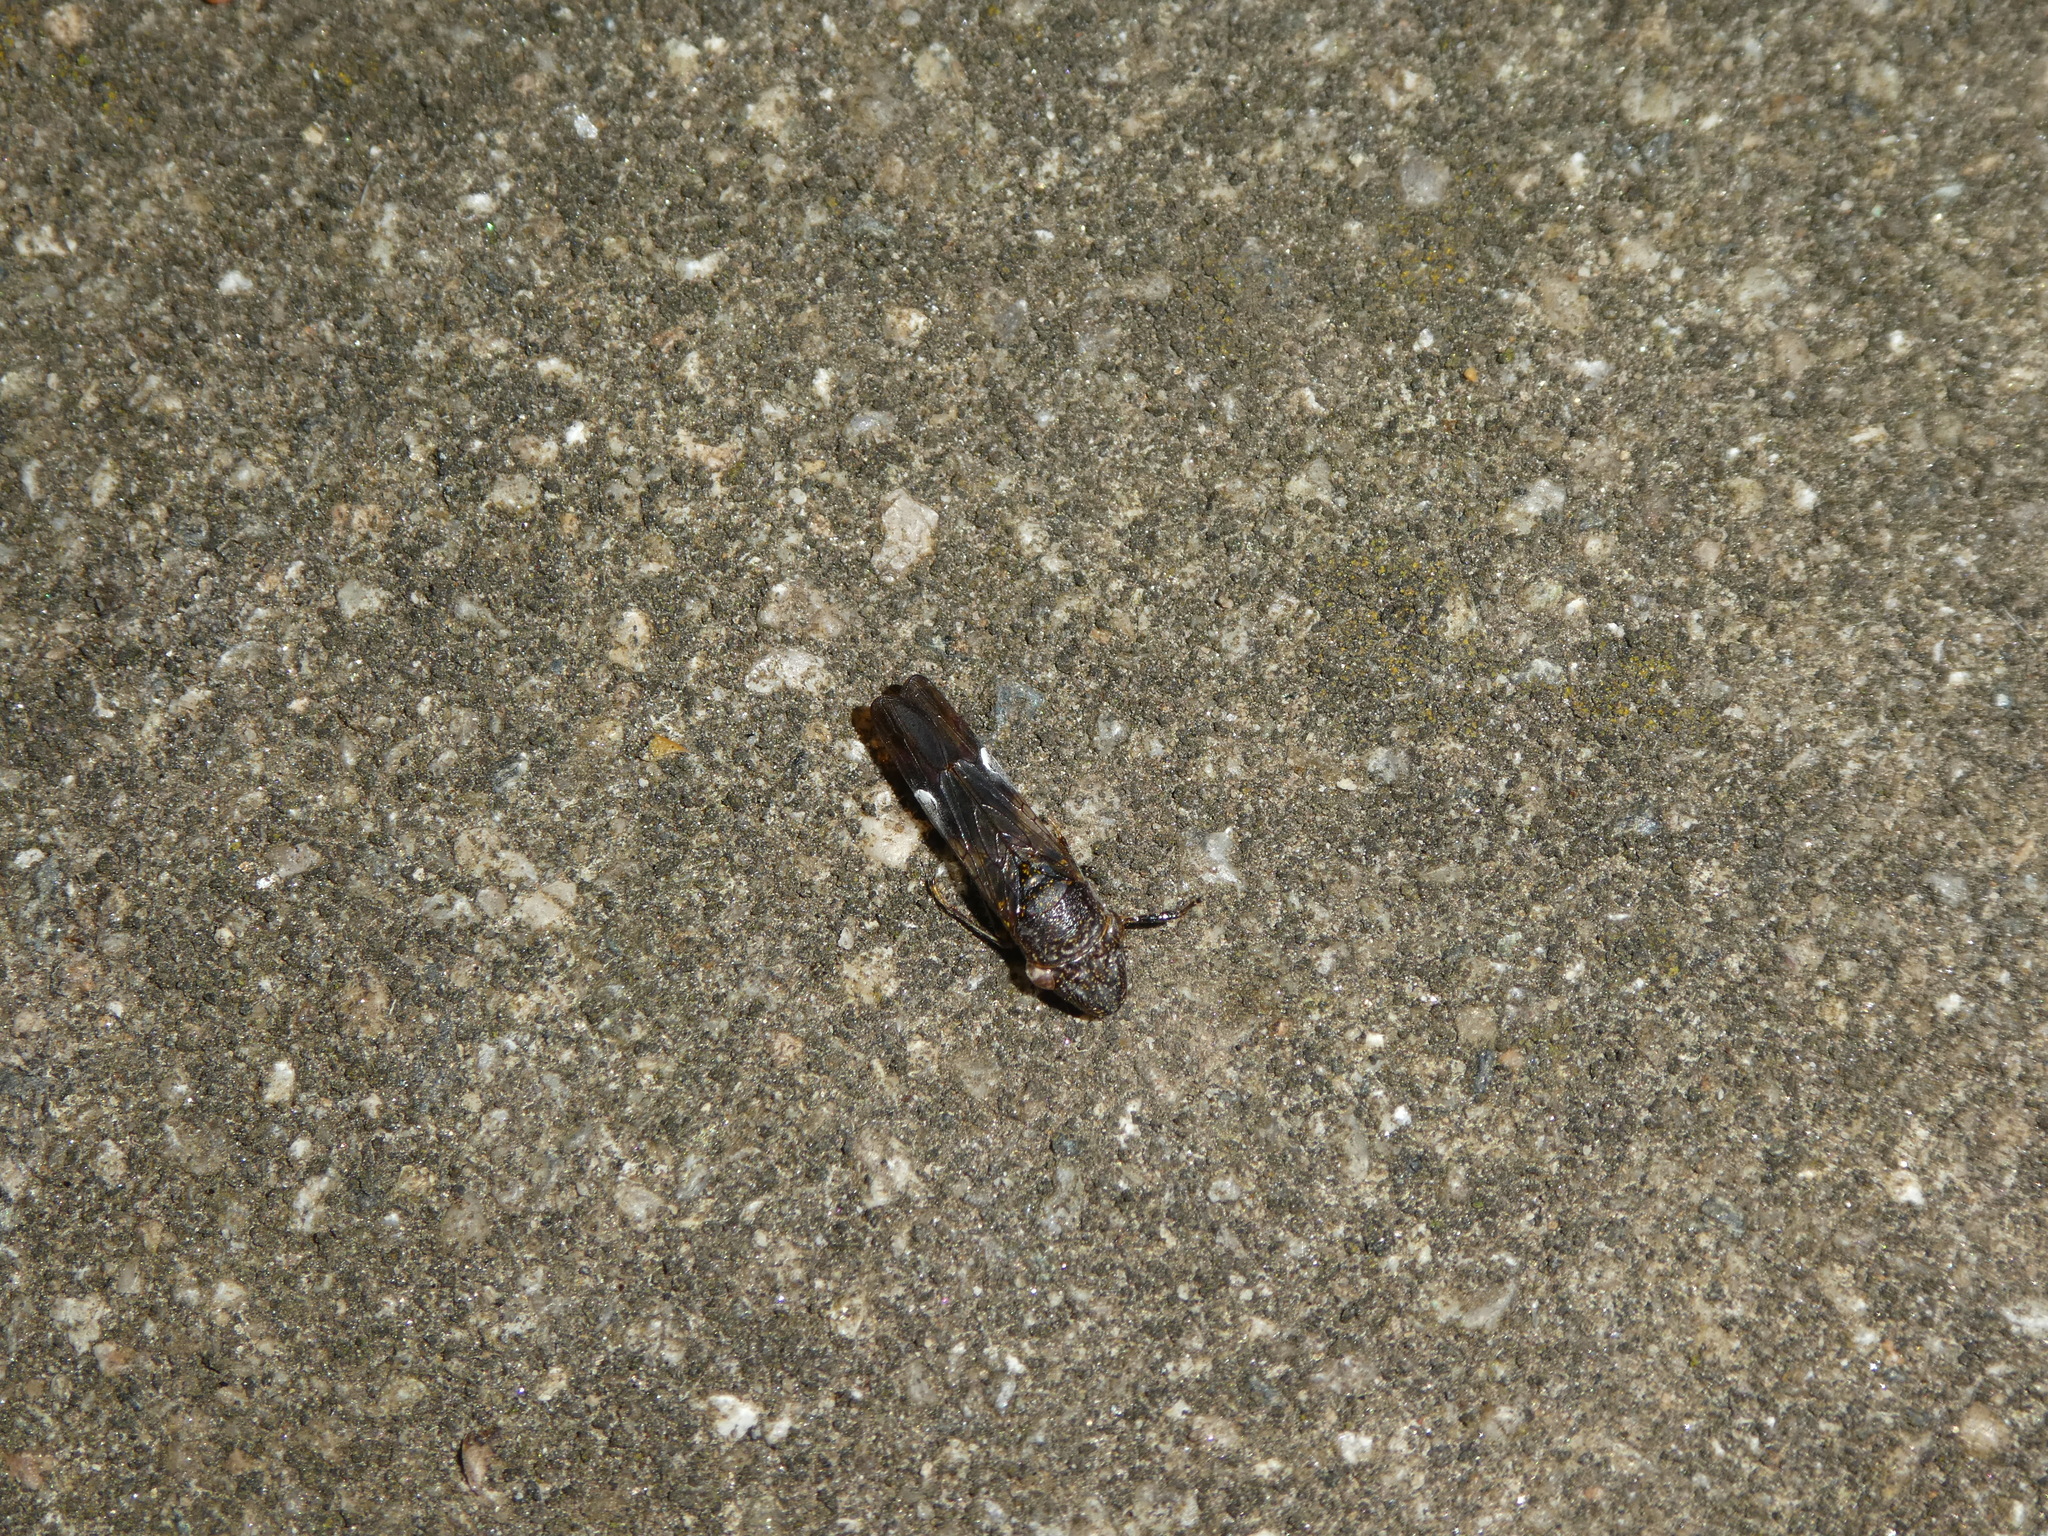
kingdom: Animalia
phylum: Arthropoda
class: Insecta
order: Hemiptera
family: Cicadellidae
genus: Homalodisca
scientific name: Homalodisca vitripennis
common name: Glassy-winged sharpshooter
